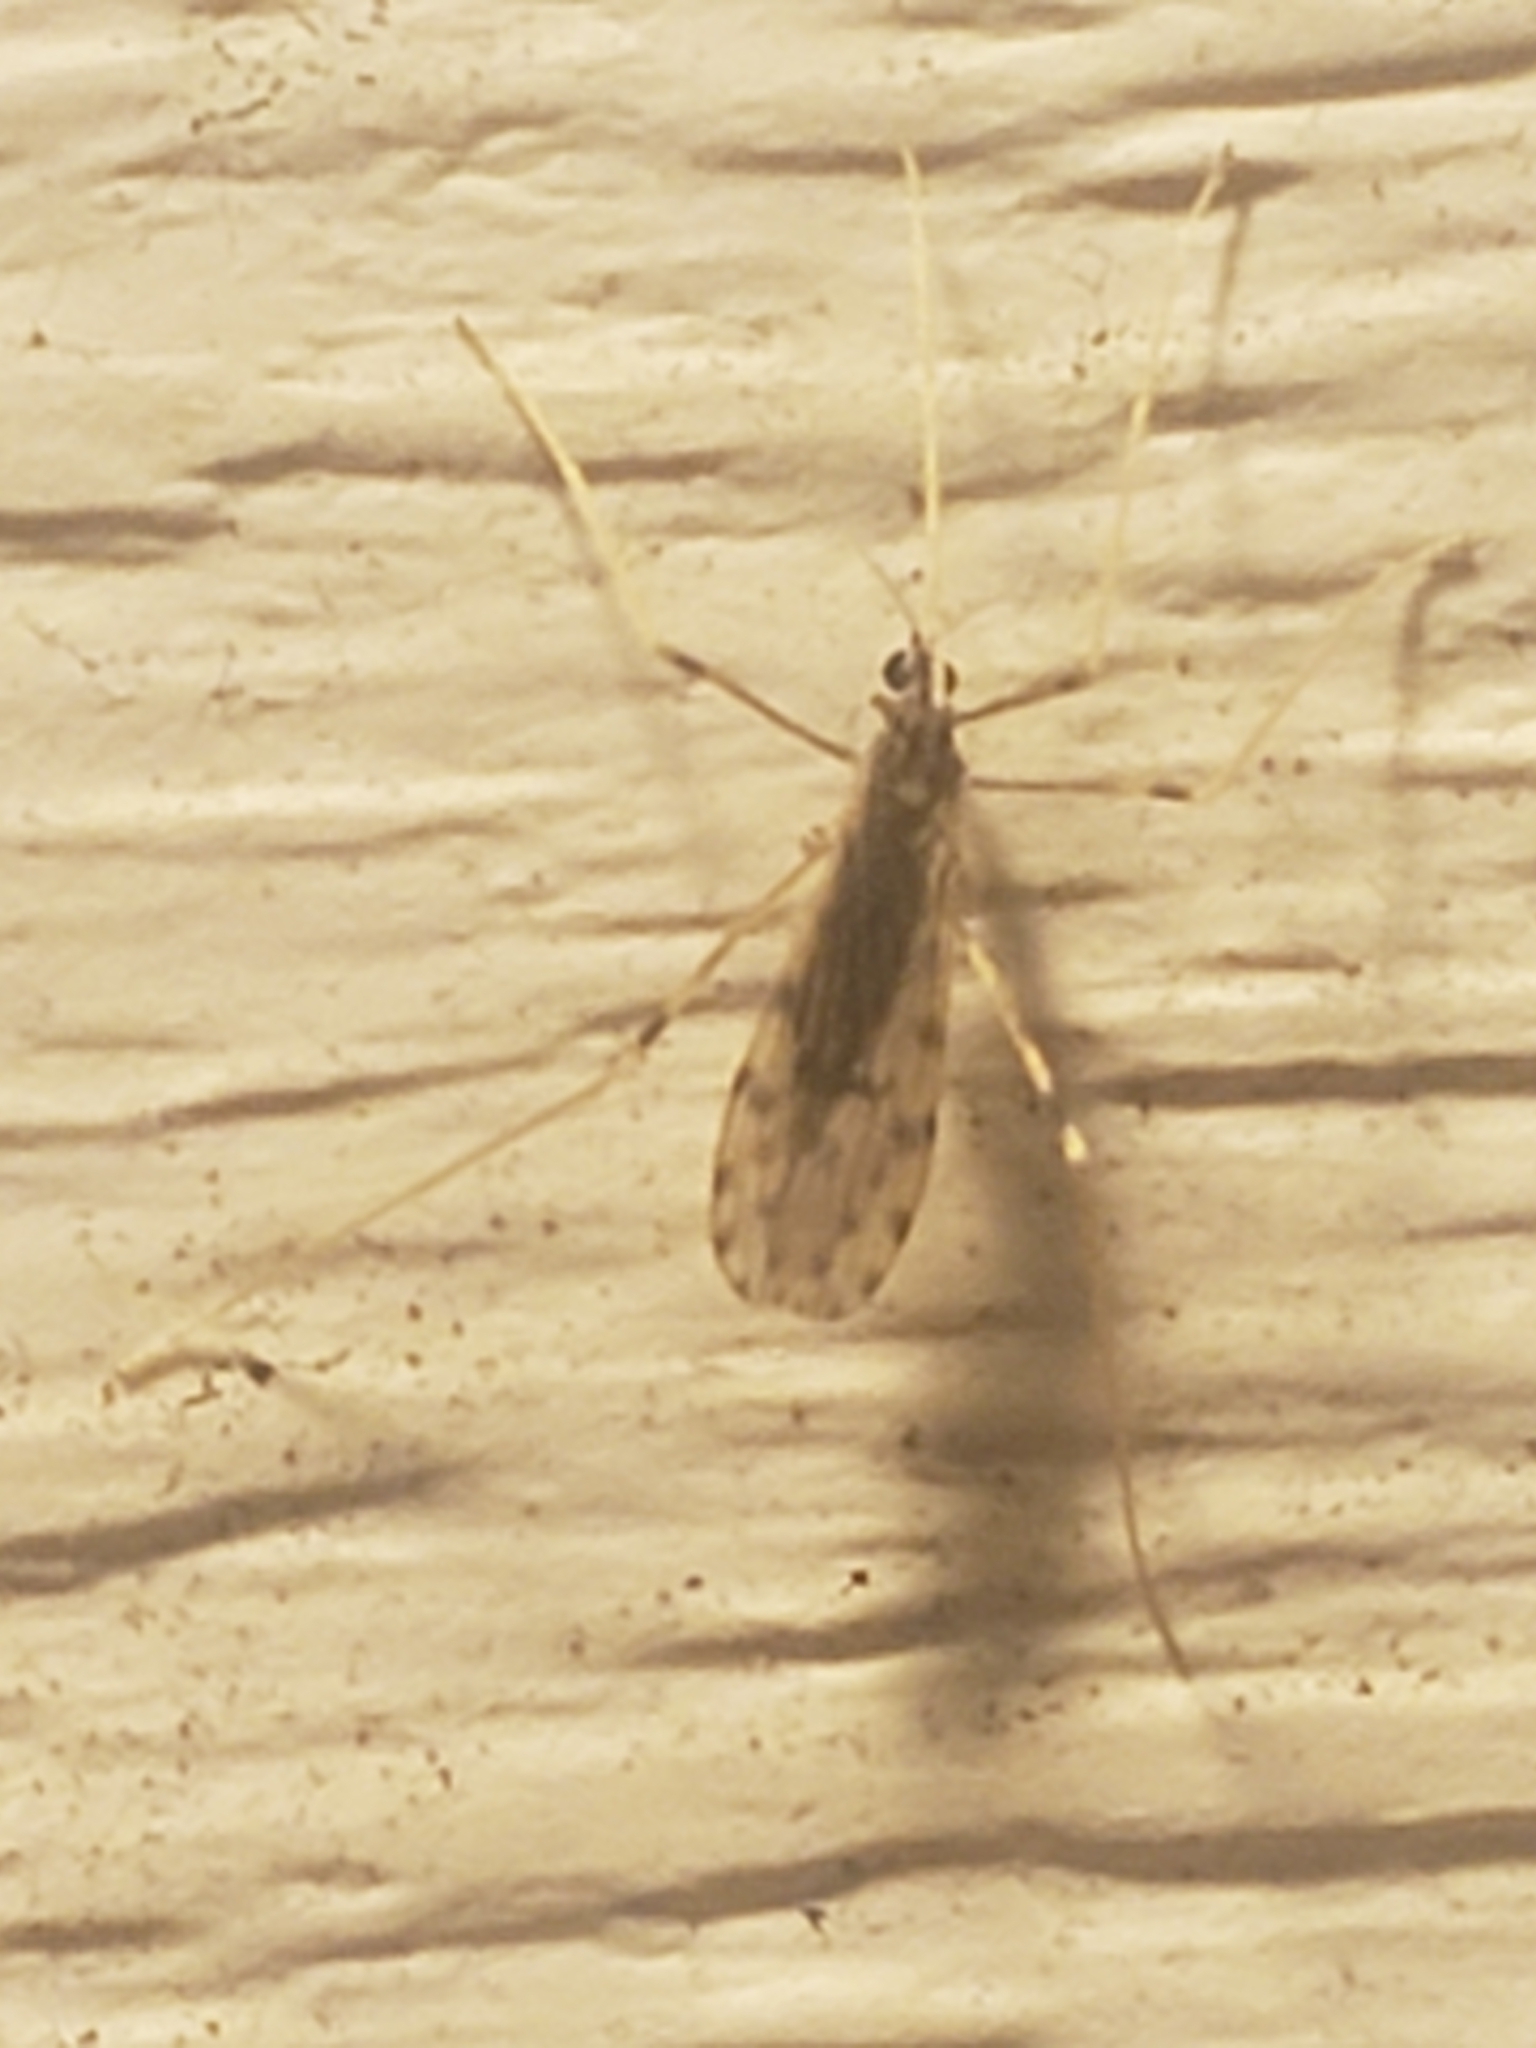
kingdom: Animalia
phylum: Arthropoda
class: Insecta
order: Diptera
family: Limoniidae
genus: Erioptera
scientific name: Erioptera parva
